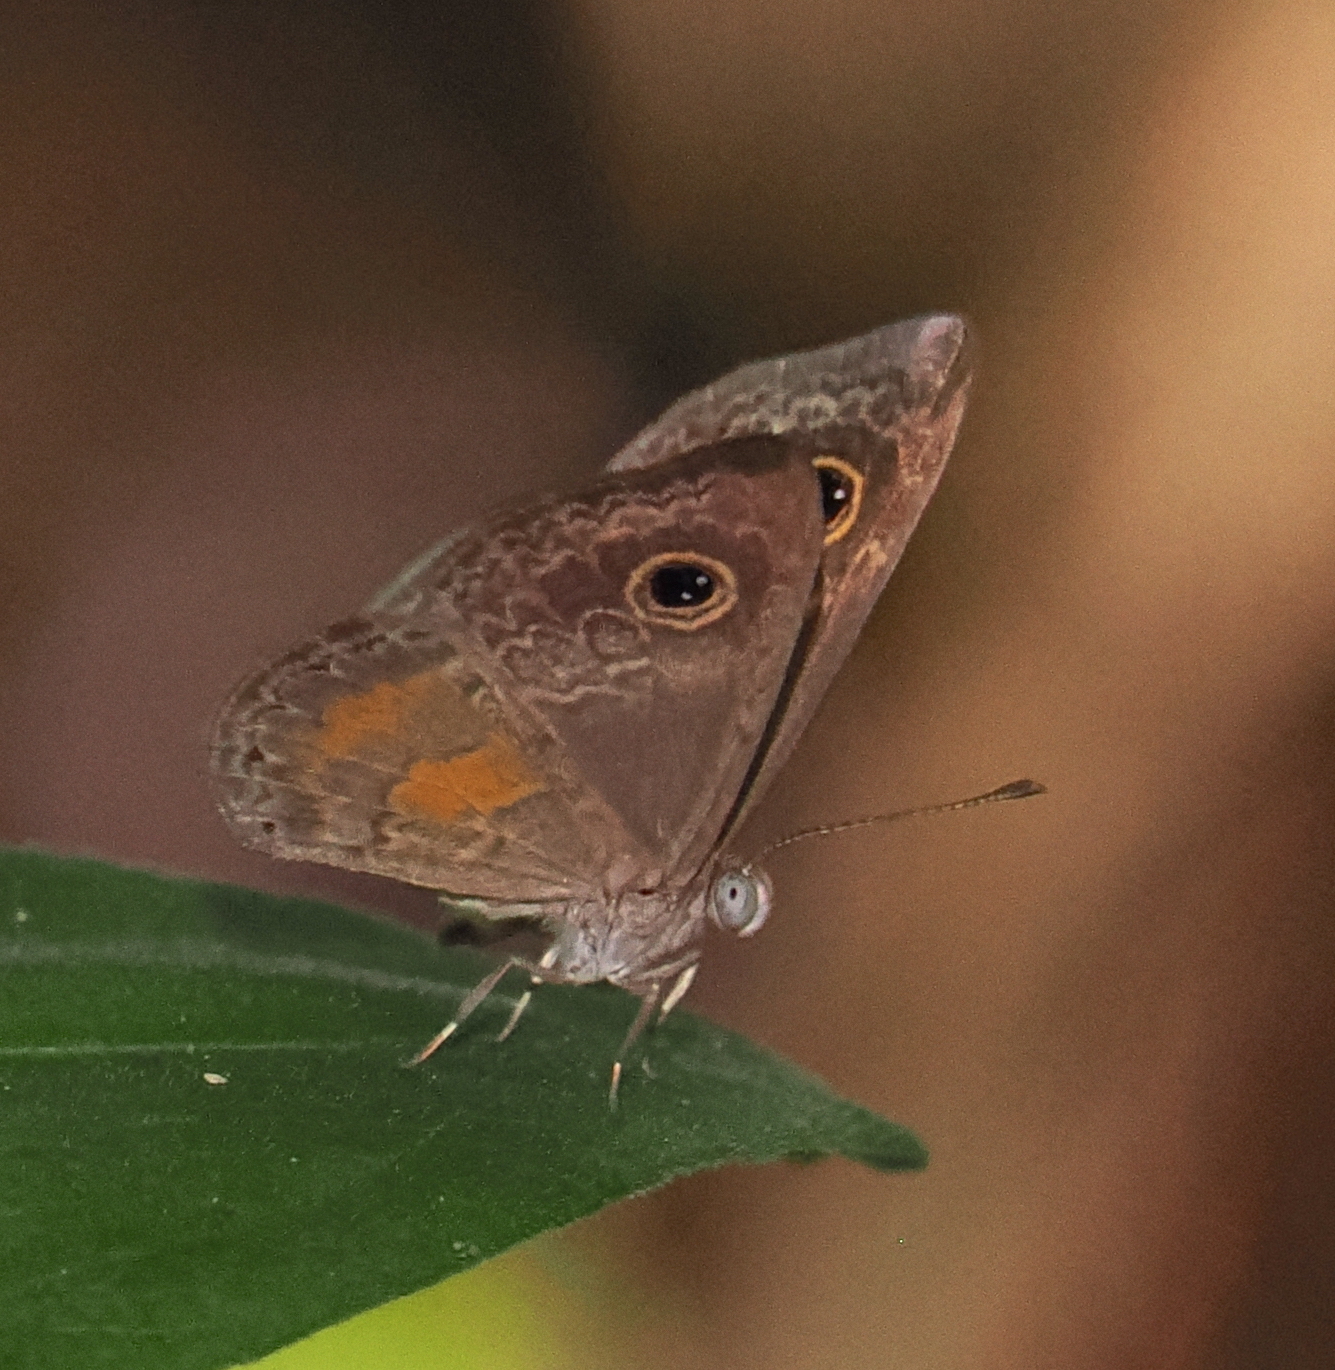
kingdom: Animalia
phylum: Arthropoda
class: Insecta
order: Lepidoptera
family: Riodinidae
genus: Perophthalma
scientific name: Perophthalma tullius
